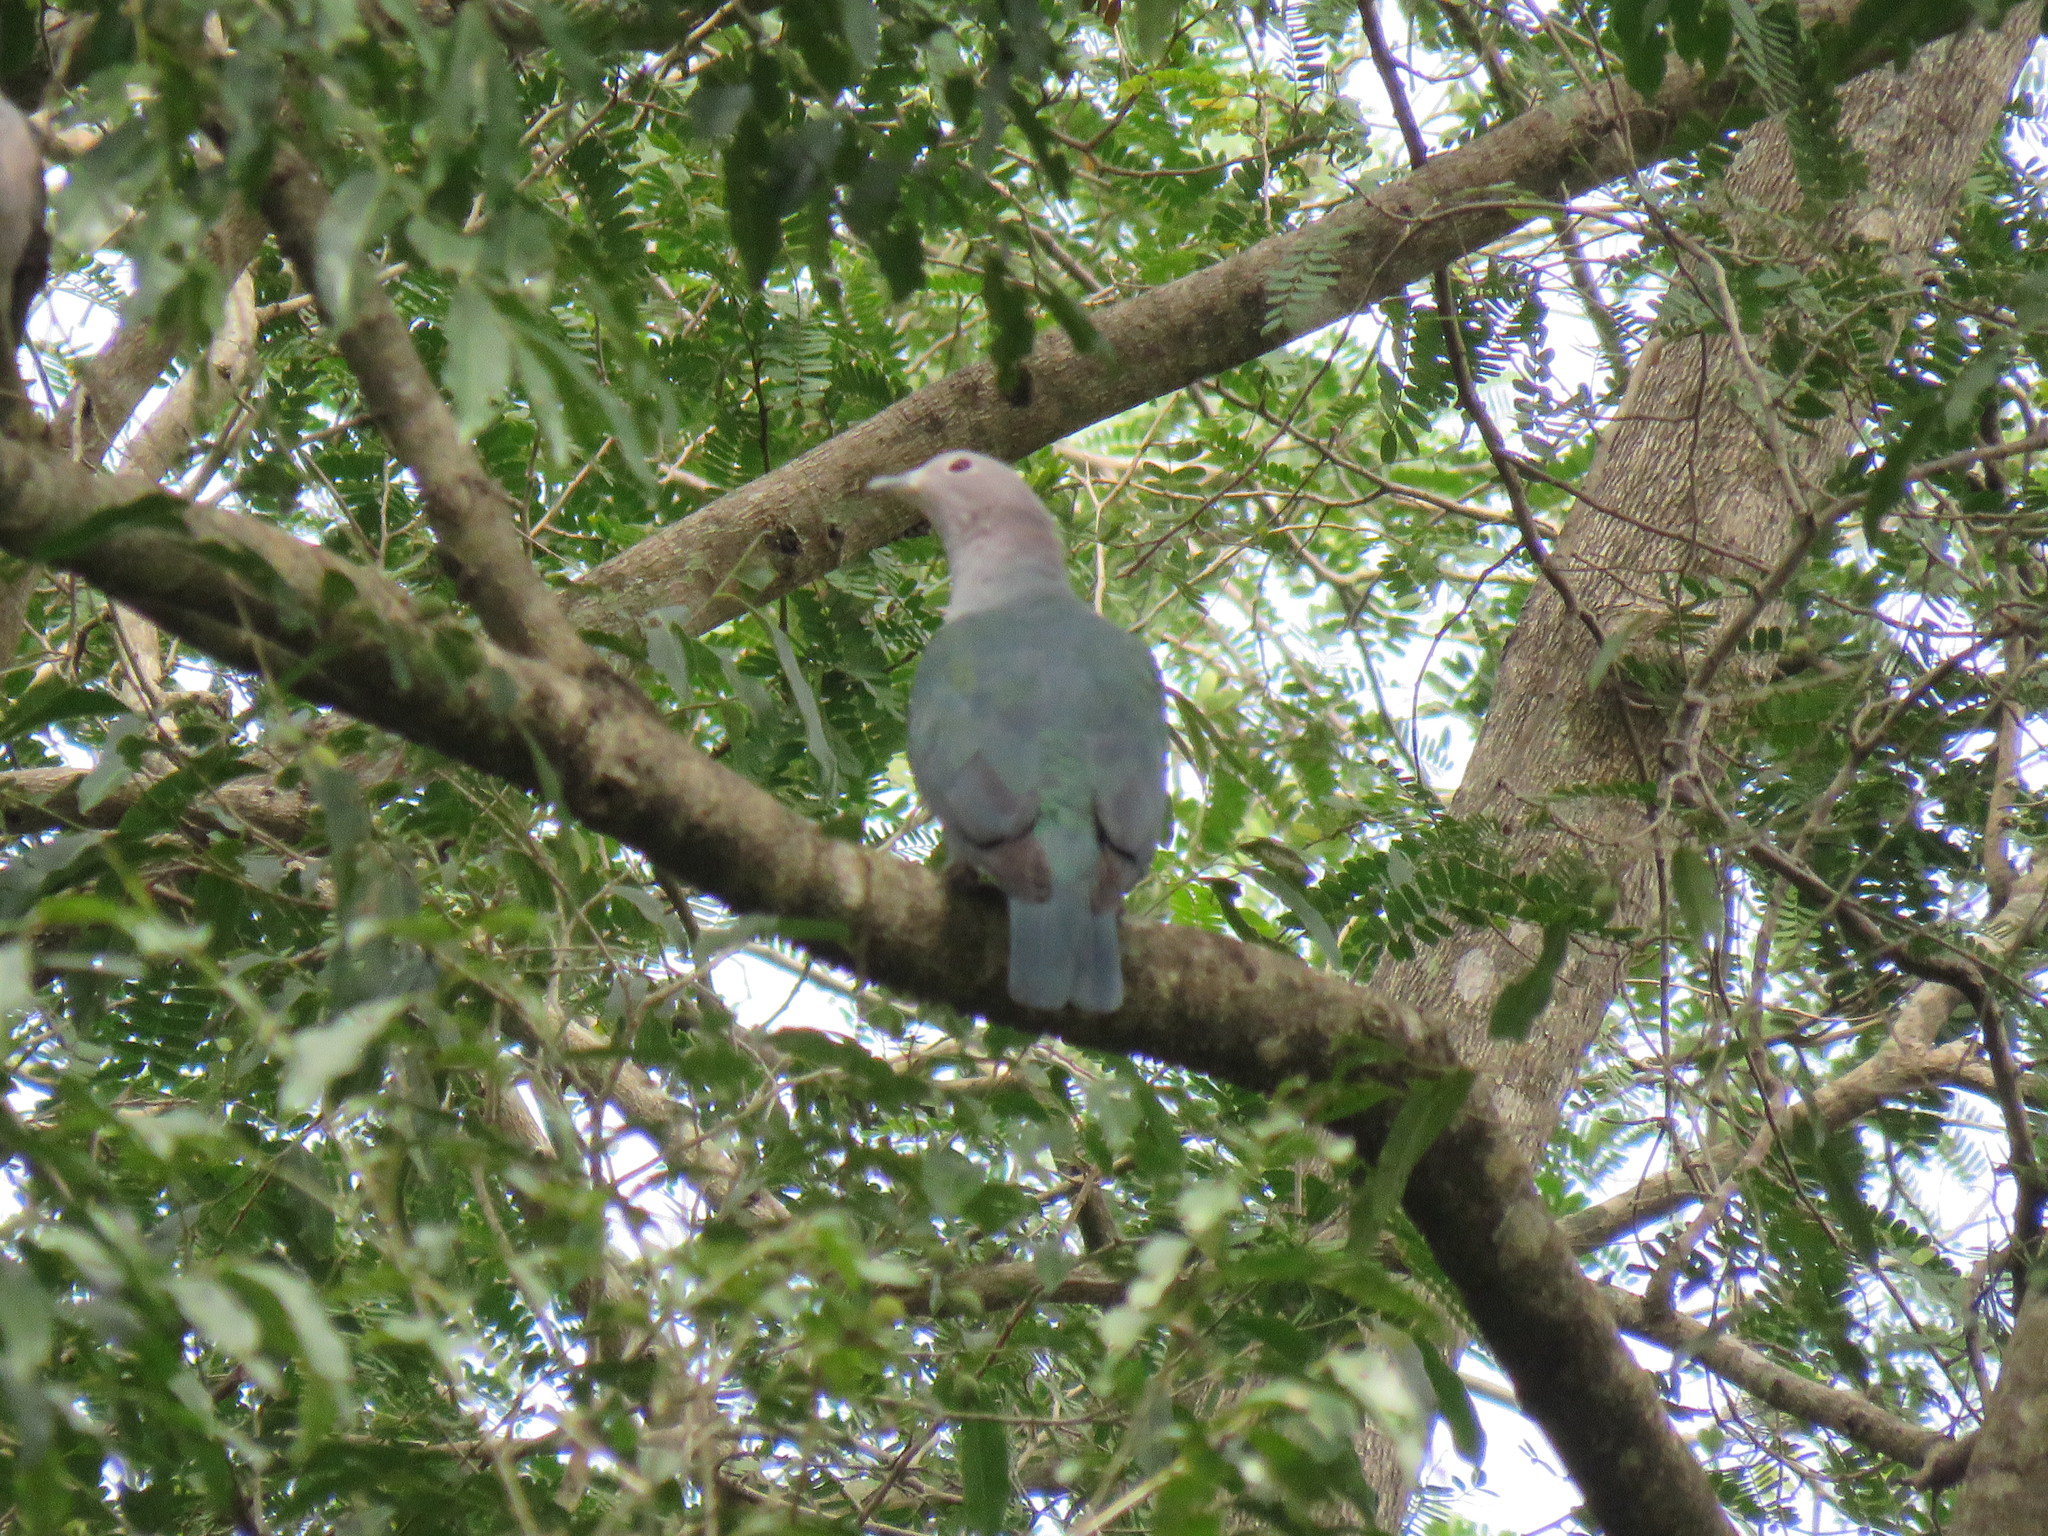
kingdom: Animalia
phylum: Chordata
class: Aves
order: Columbiformes
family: Columbidae
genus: Ducula
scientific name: Ducula aenea
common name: Green imperial pigeon
